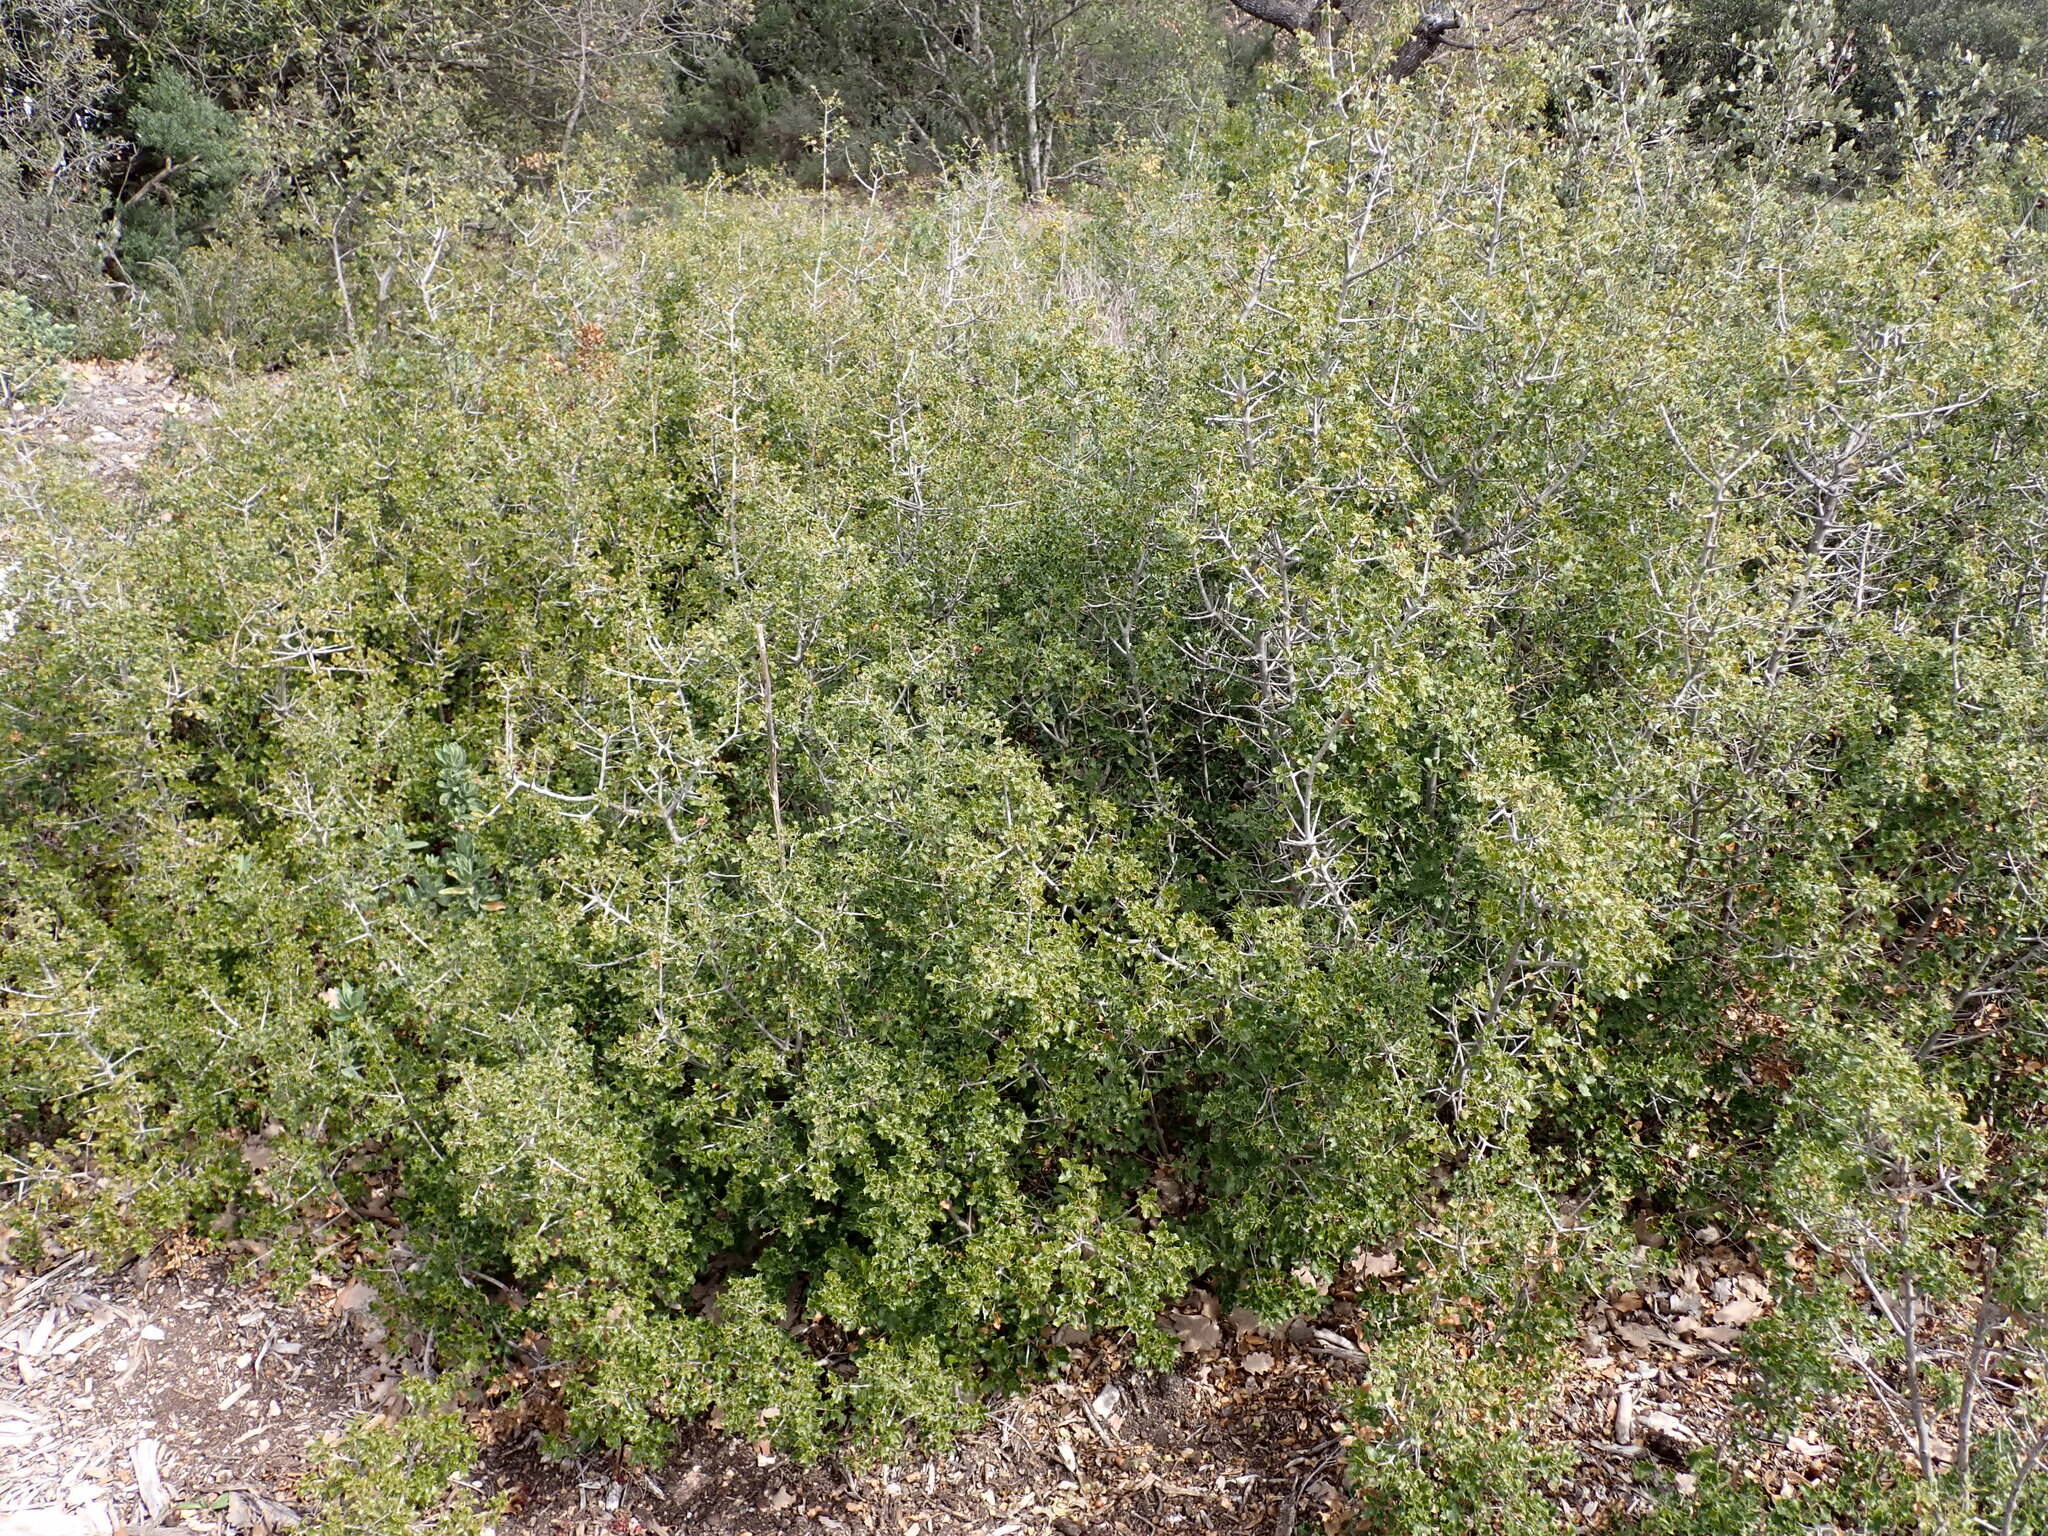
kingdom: Plantae
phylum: Tracheophyta
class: Magnoliopsida
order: Fagales
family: Fagaceae
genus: Quercus
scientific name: Quercus coccifera
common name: Kermes oak
